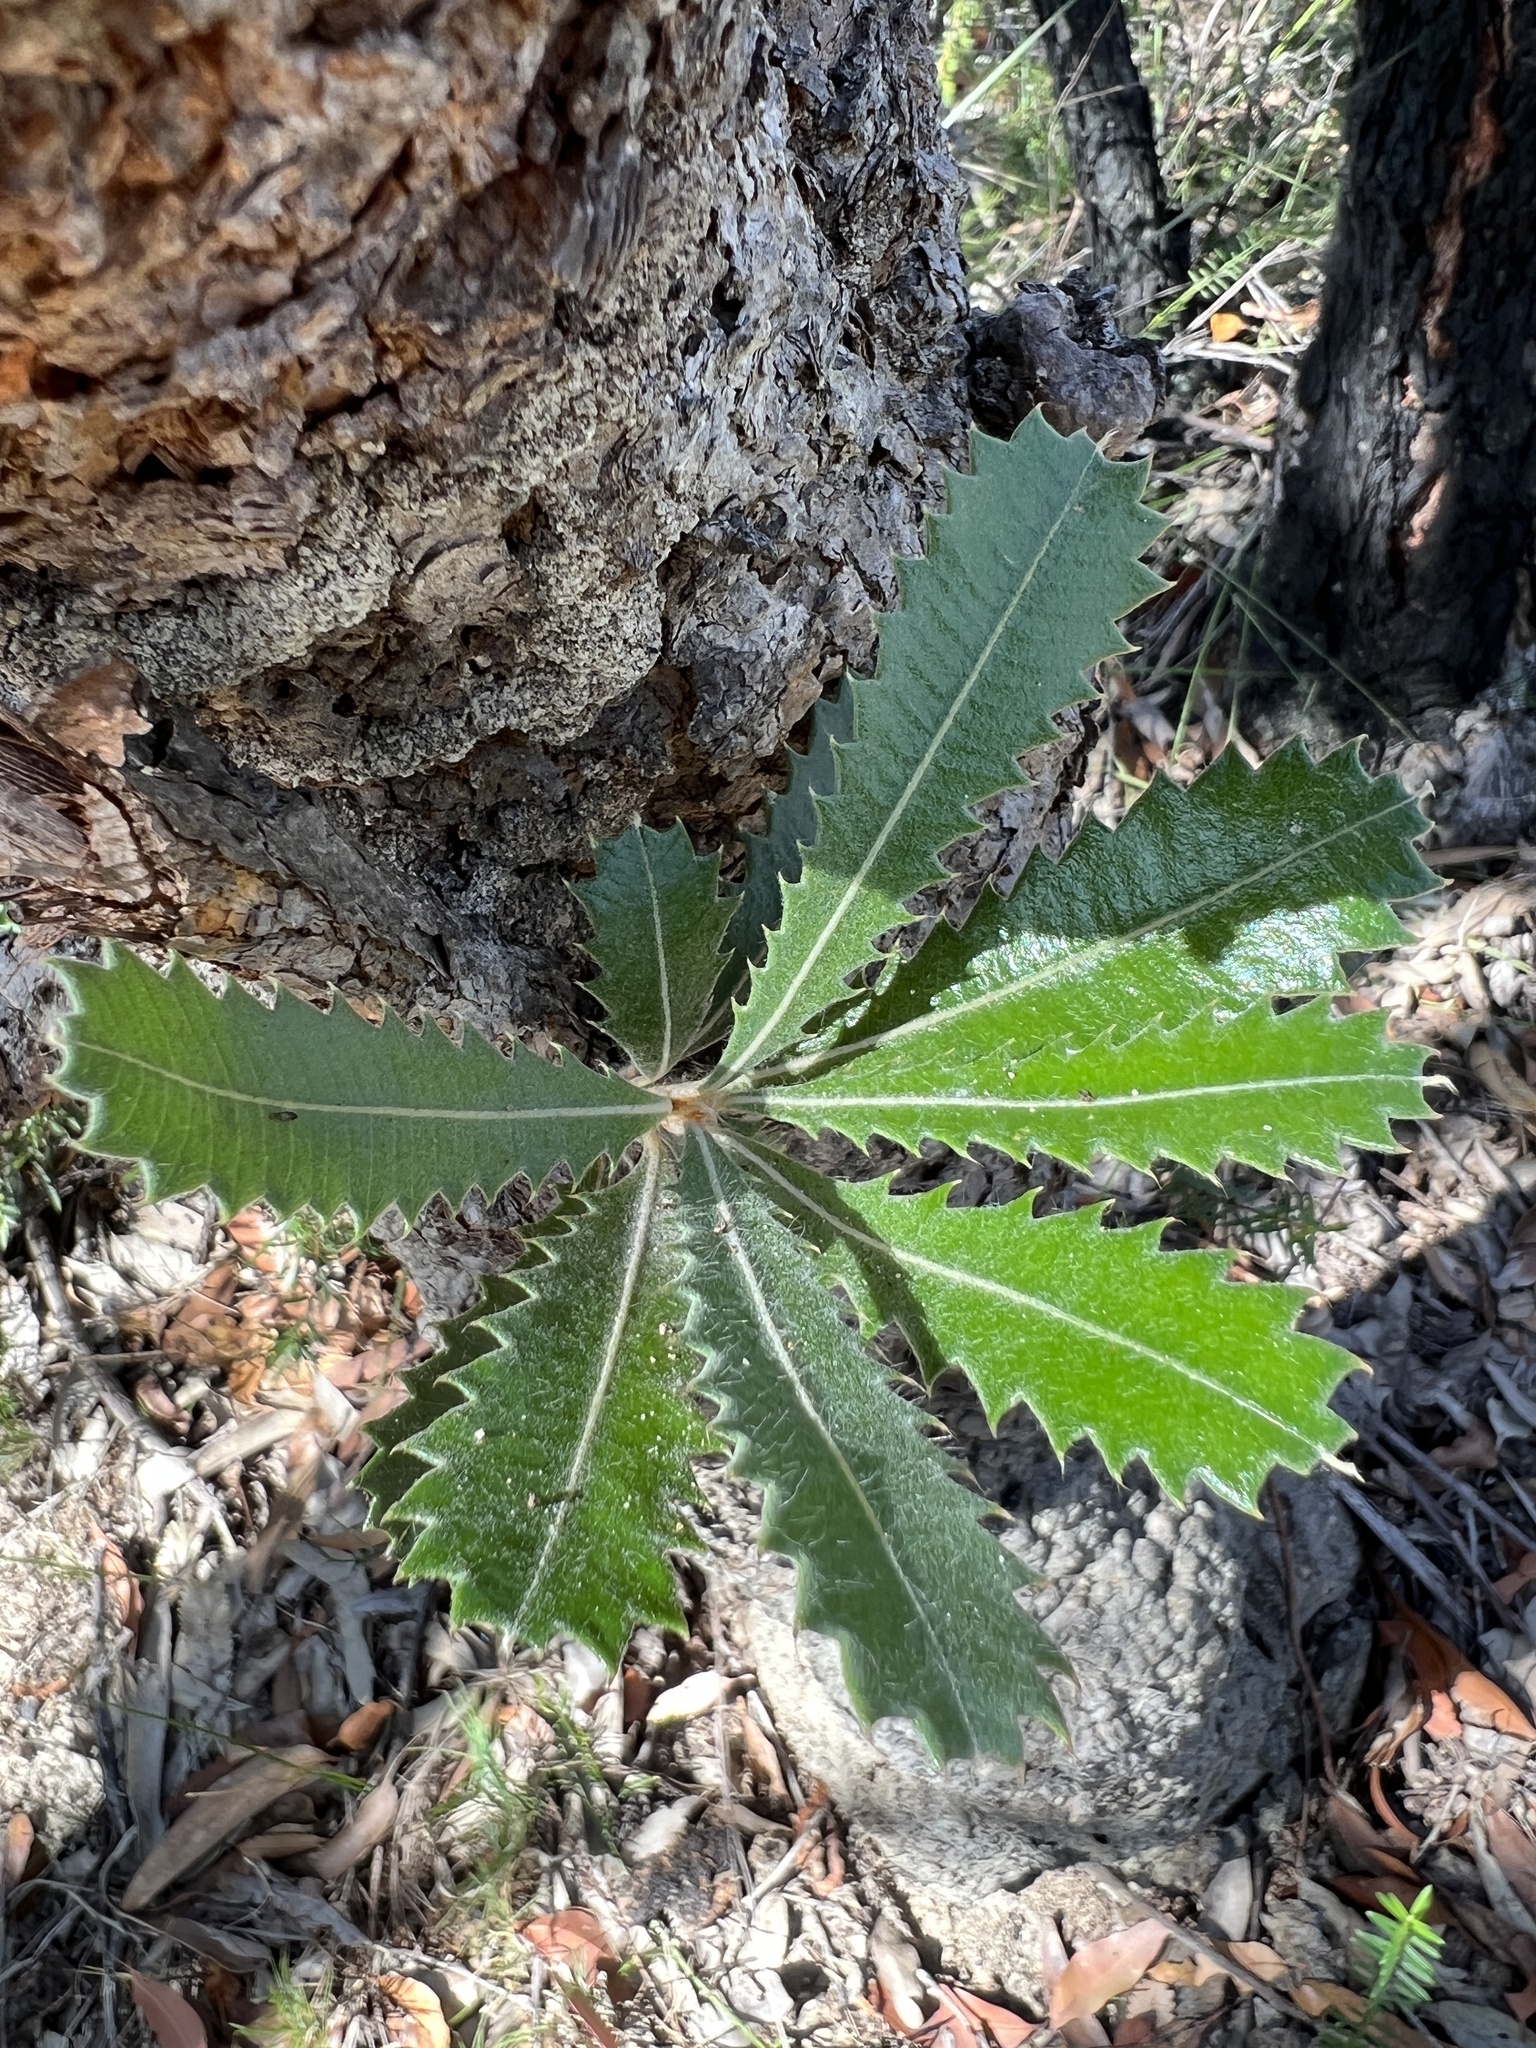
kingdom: Plantae
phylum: Tracheophyta
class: Magnoliopsida
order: Proteales
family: Proteaceae
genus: Banksia
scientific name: Banksia serrata
